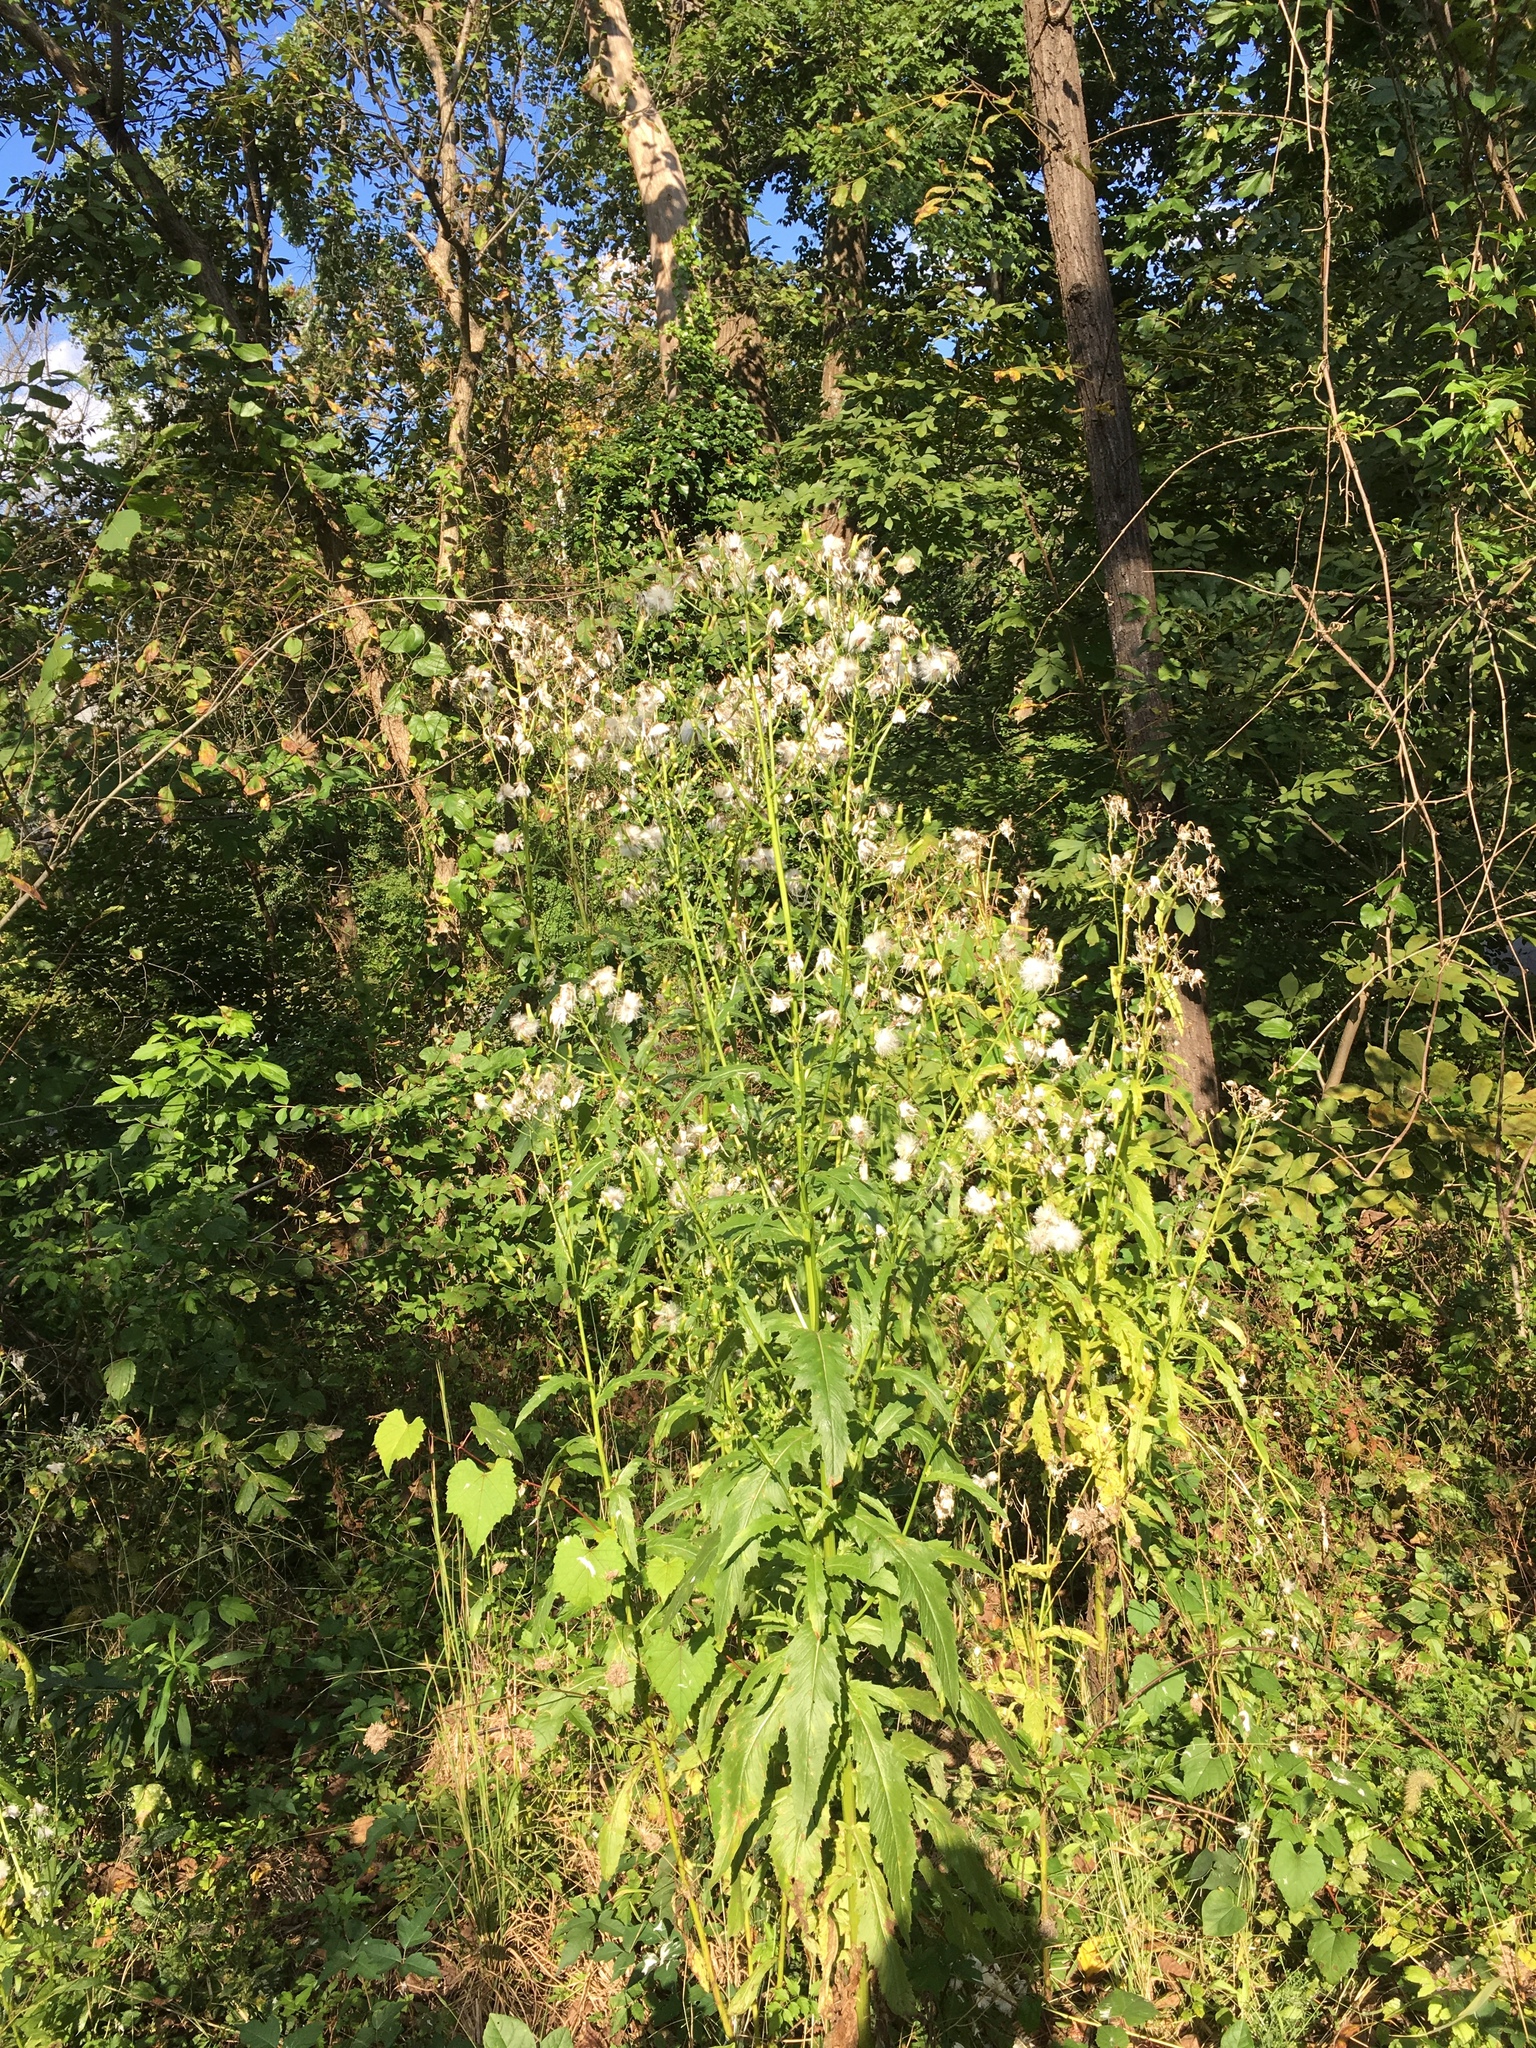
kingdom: Plantae
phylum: Tracheophyta
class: Magnoliopsida
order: Asterales
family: Asteraceae
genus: Erechtites
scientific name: Erechtites hieraciifolius
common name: American burnweed
